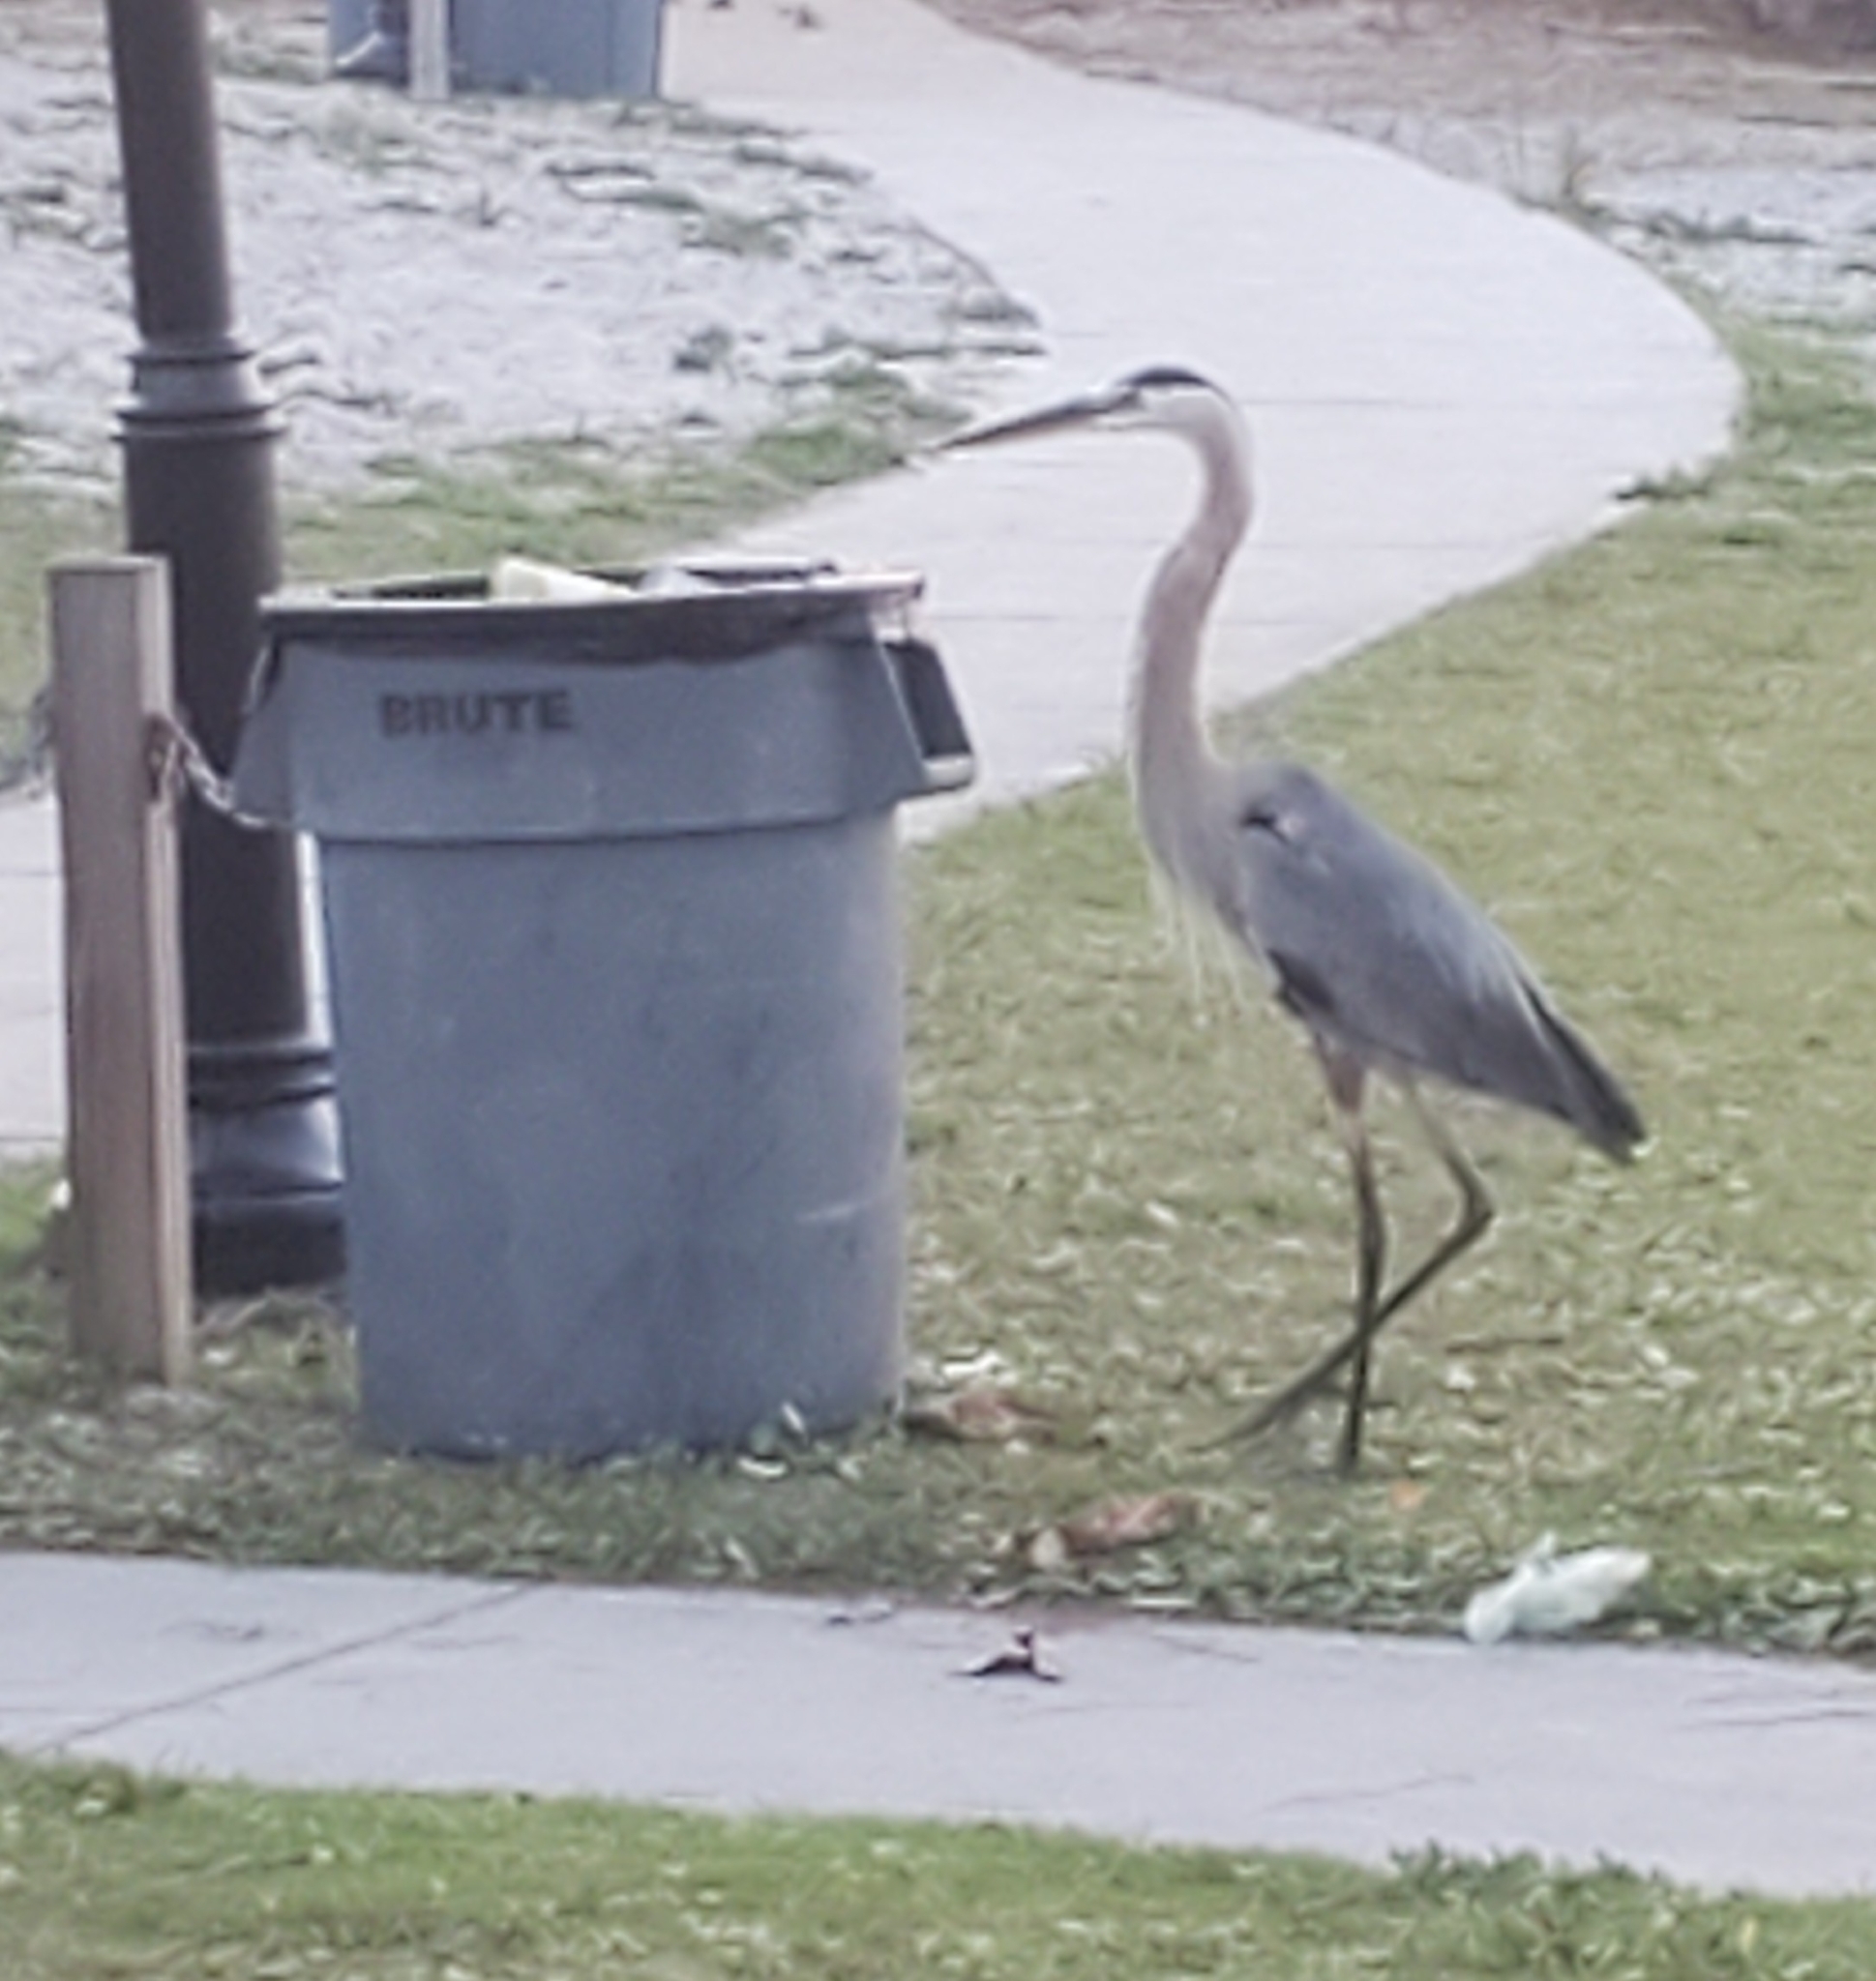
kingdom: Animalia
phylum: Chordata
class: Aves
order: Pelecaniformes
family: Ardeidae
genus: Ardea
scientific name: Ardea herodias
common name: Great blue heron
